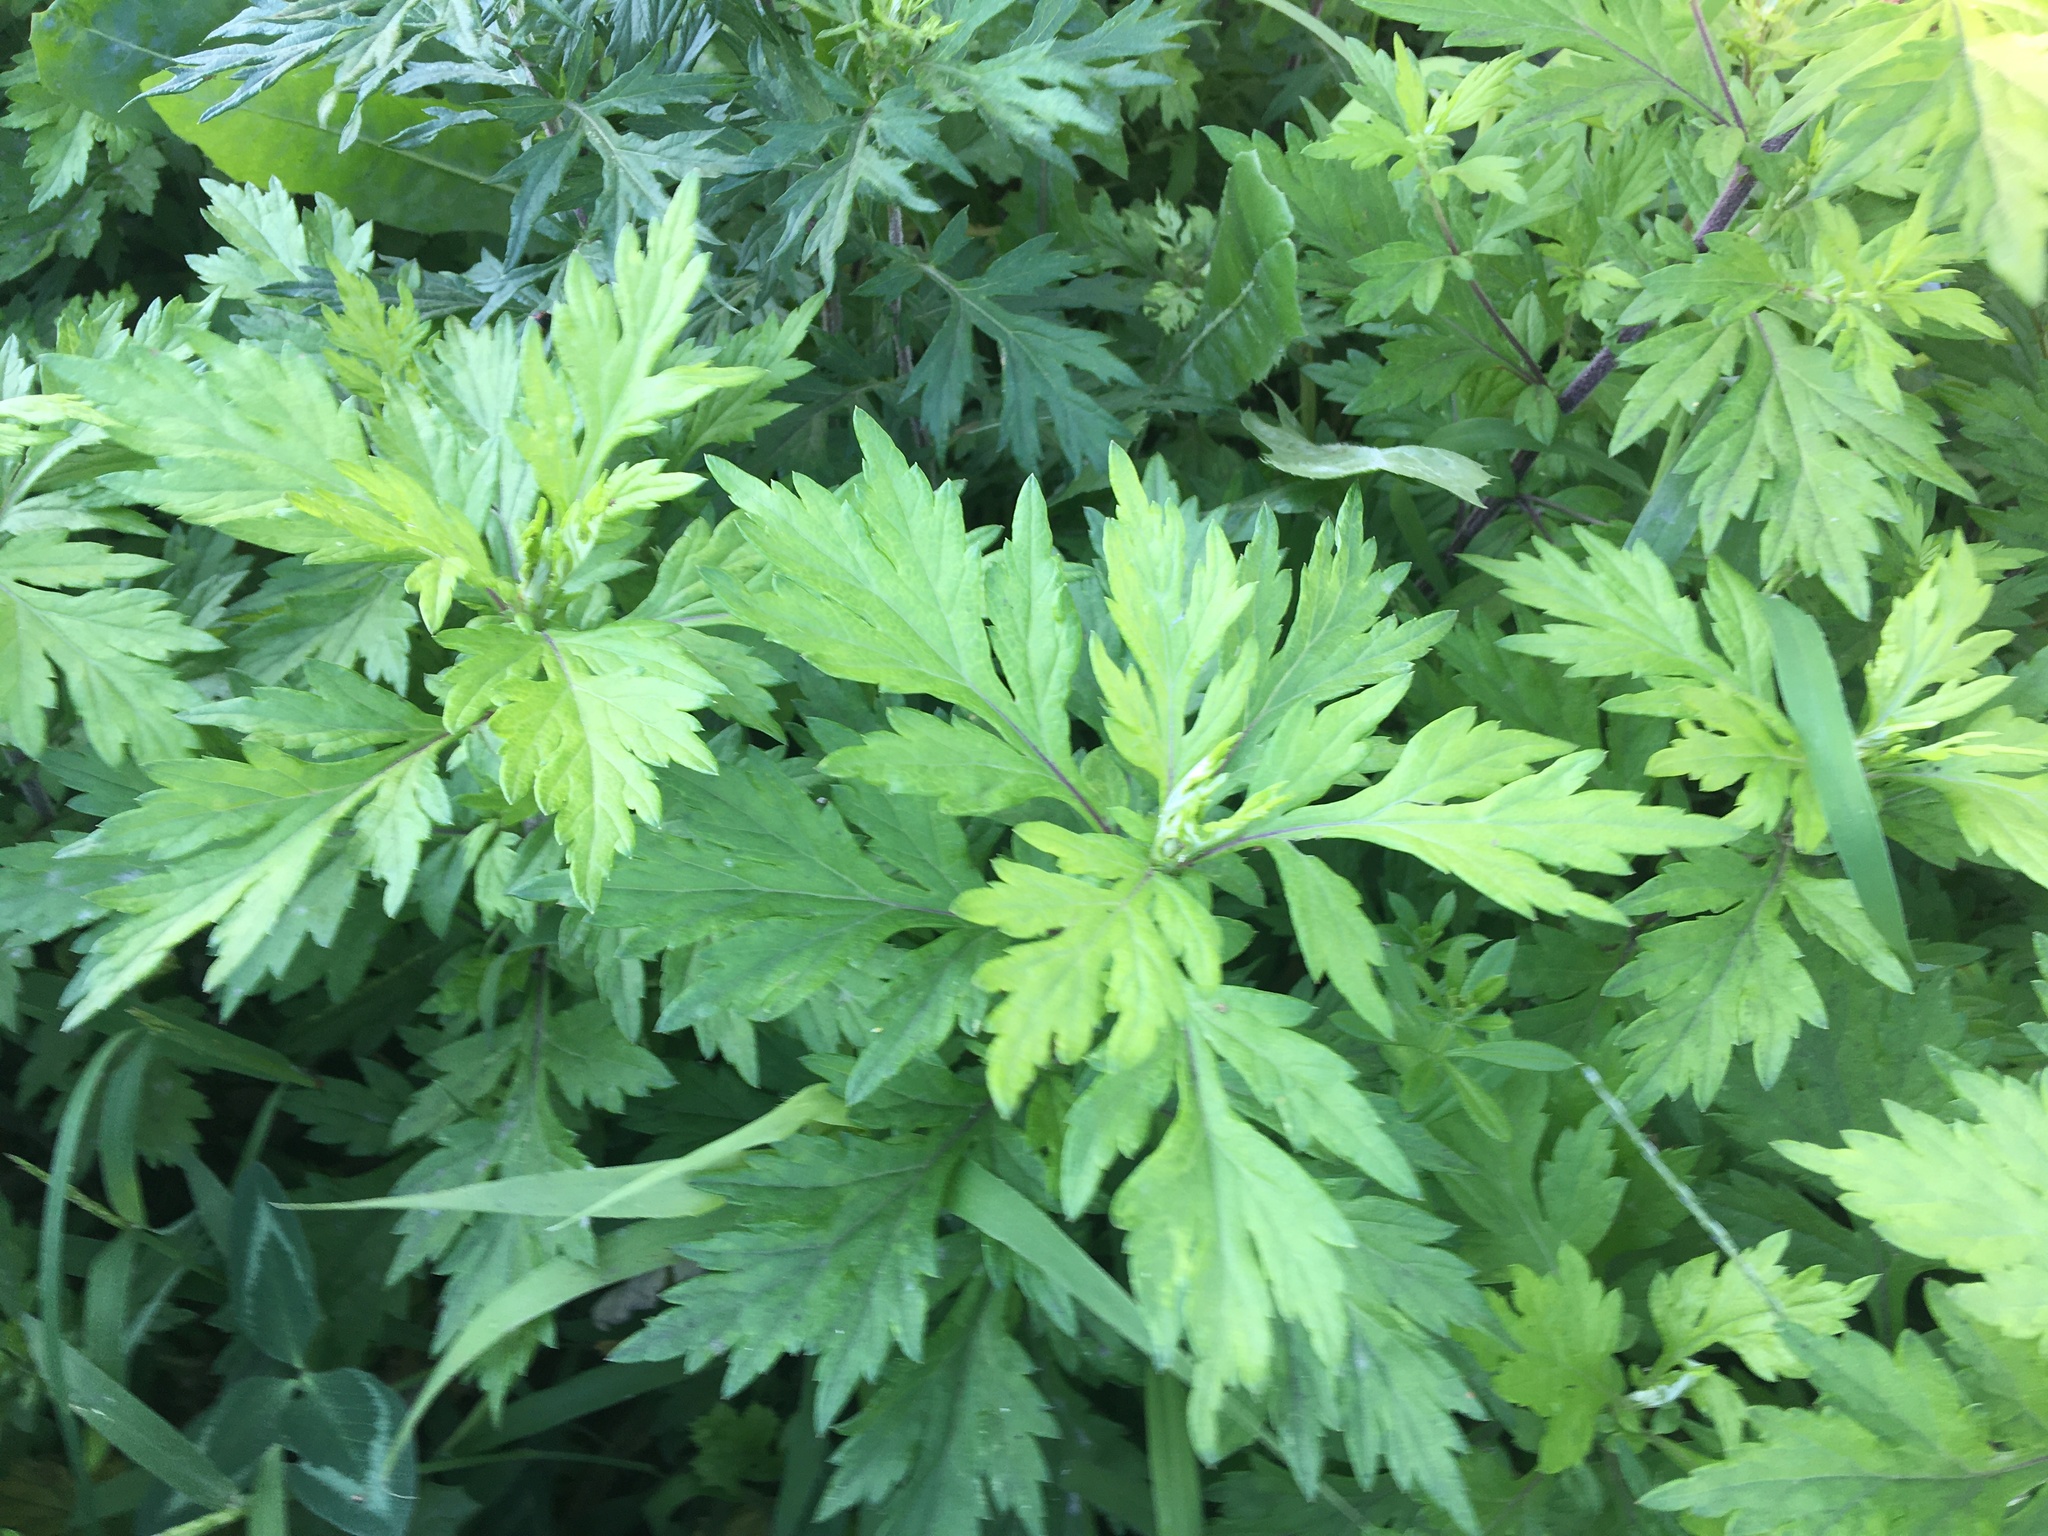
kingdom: Plantae
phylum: Tracheophyta
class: Magnoliopsida
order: Asterales
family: Asteraceae
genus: Artemisia
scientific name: Artemisia vulgaris
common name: Mugwort
